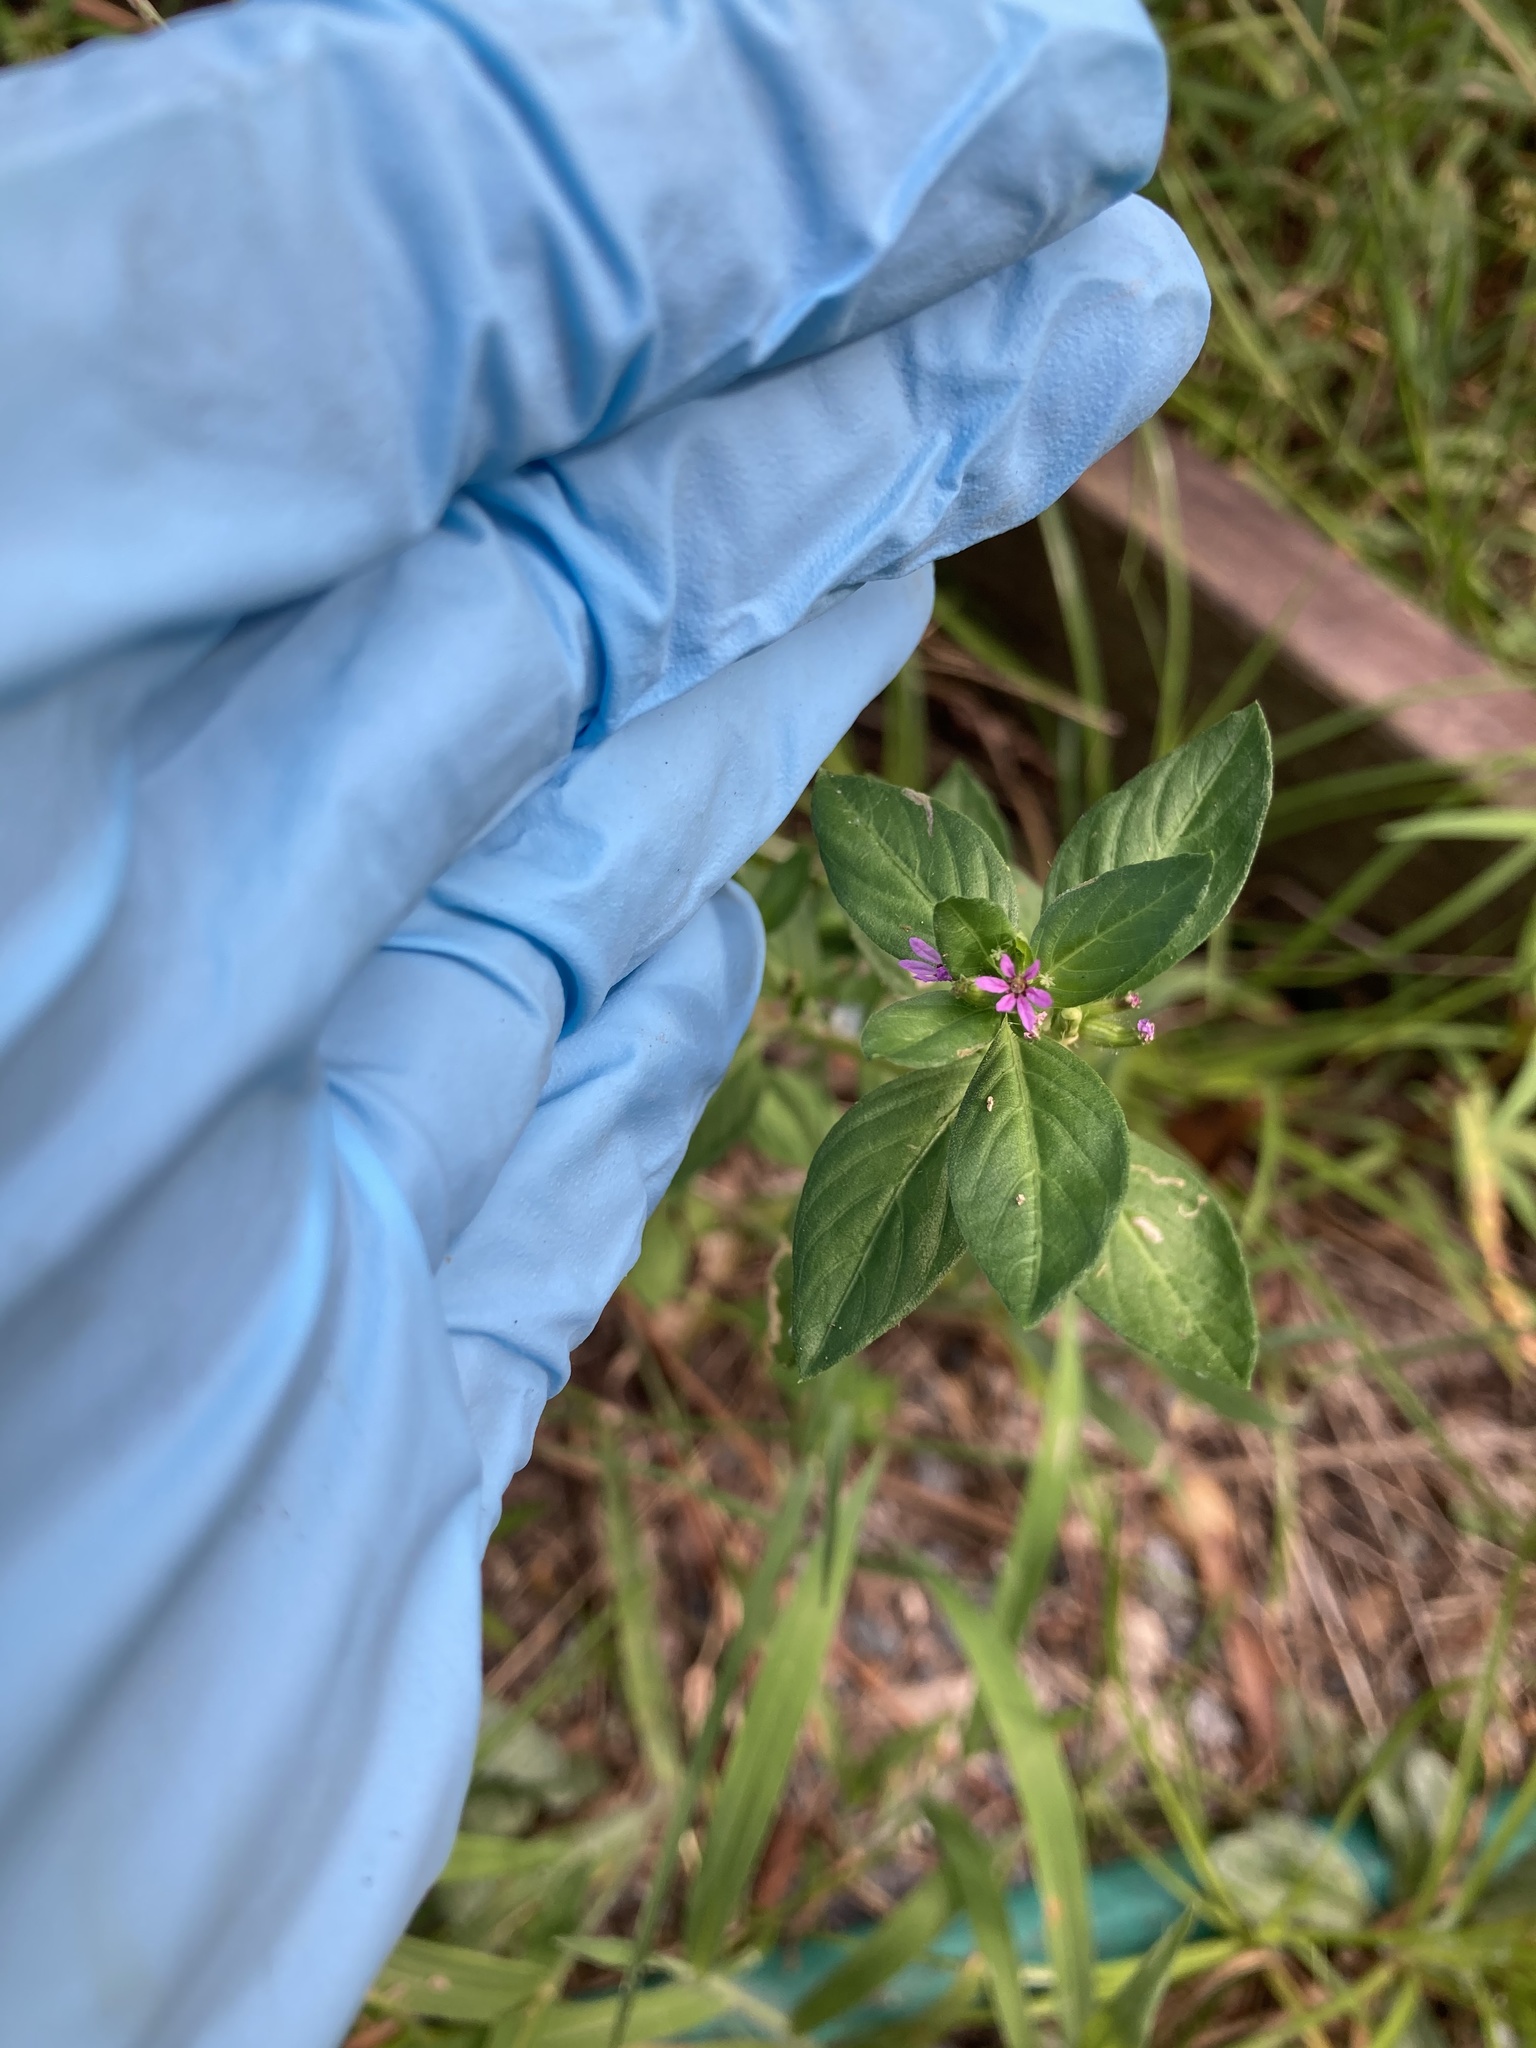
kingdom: Plantae
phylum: Tracheophyta
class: Magnoliopsida
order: Myrtales
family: Lythraceae
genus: Cuphea
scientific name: Cuphea carthagenensis
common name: Colombian waxweed
